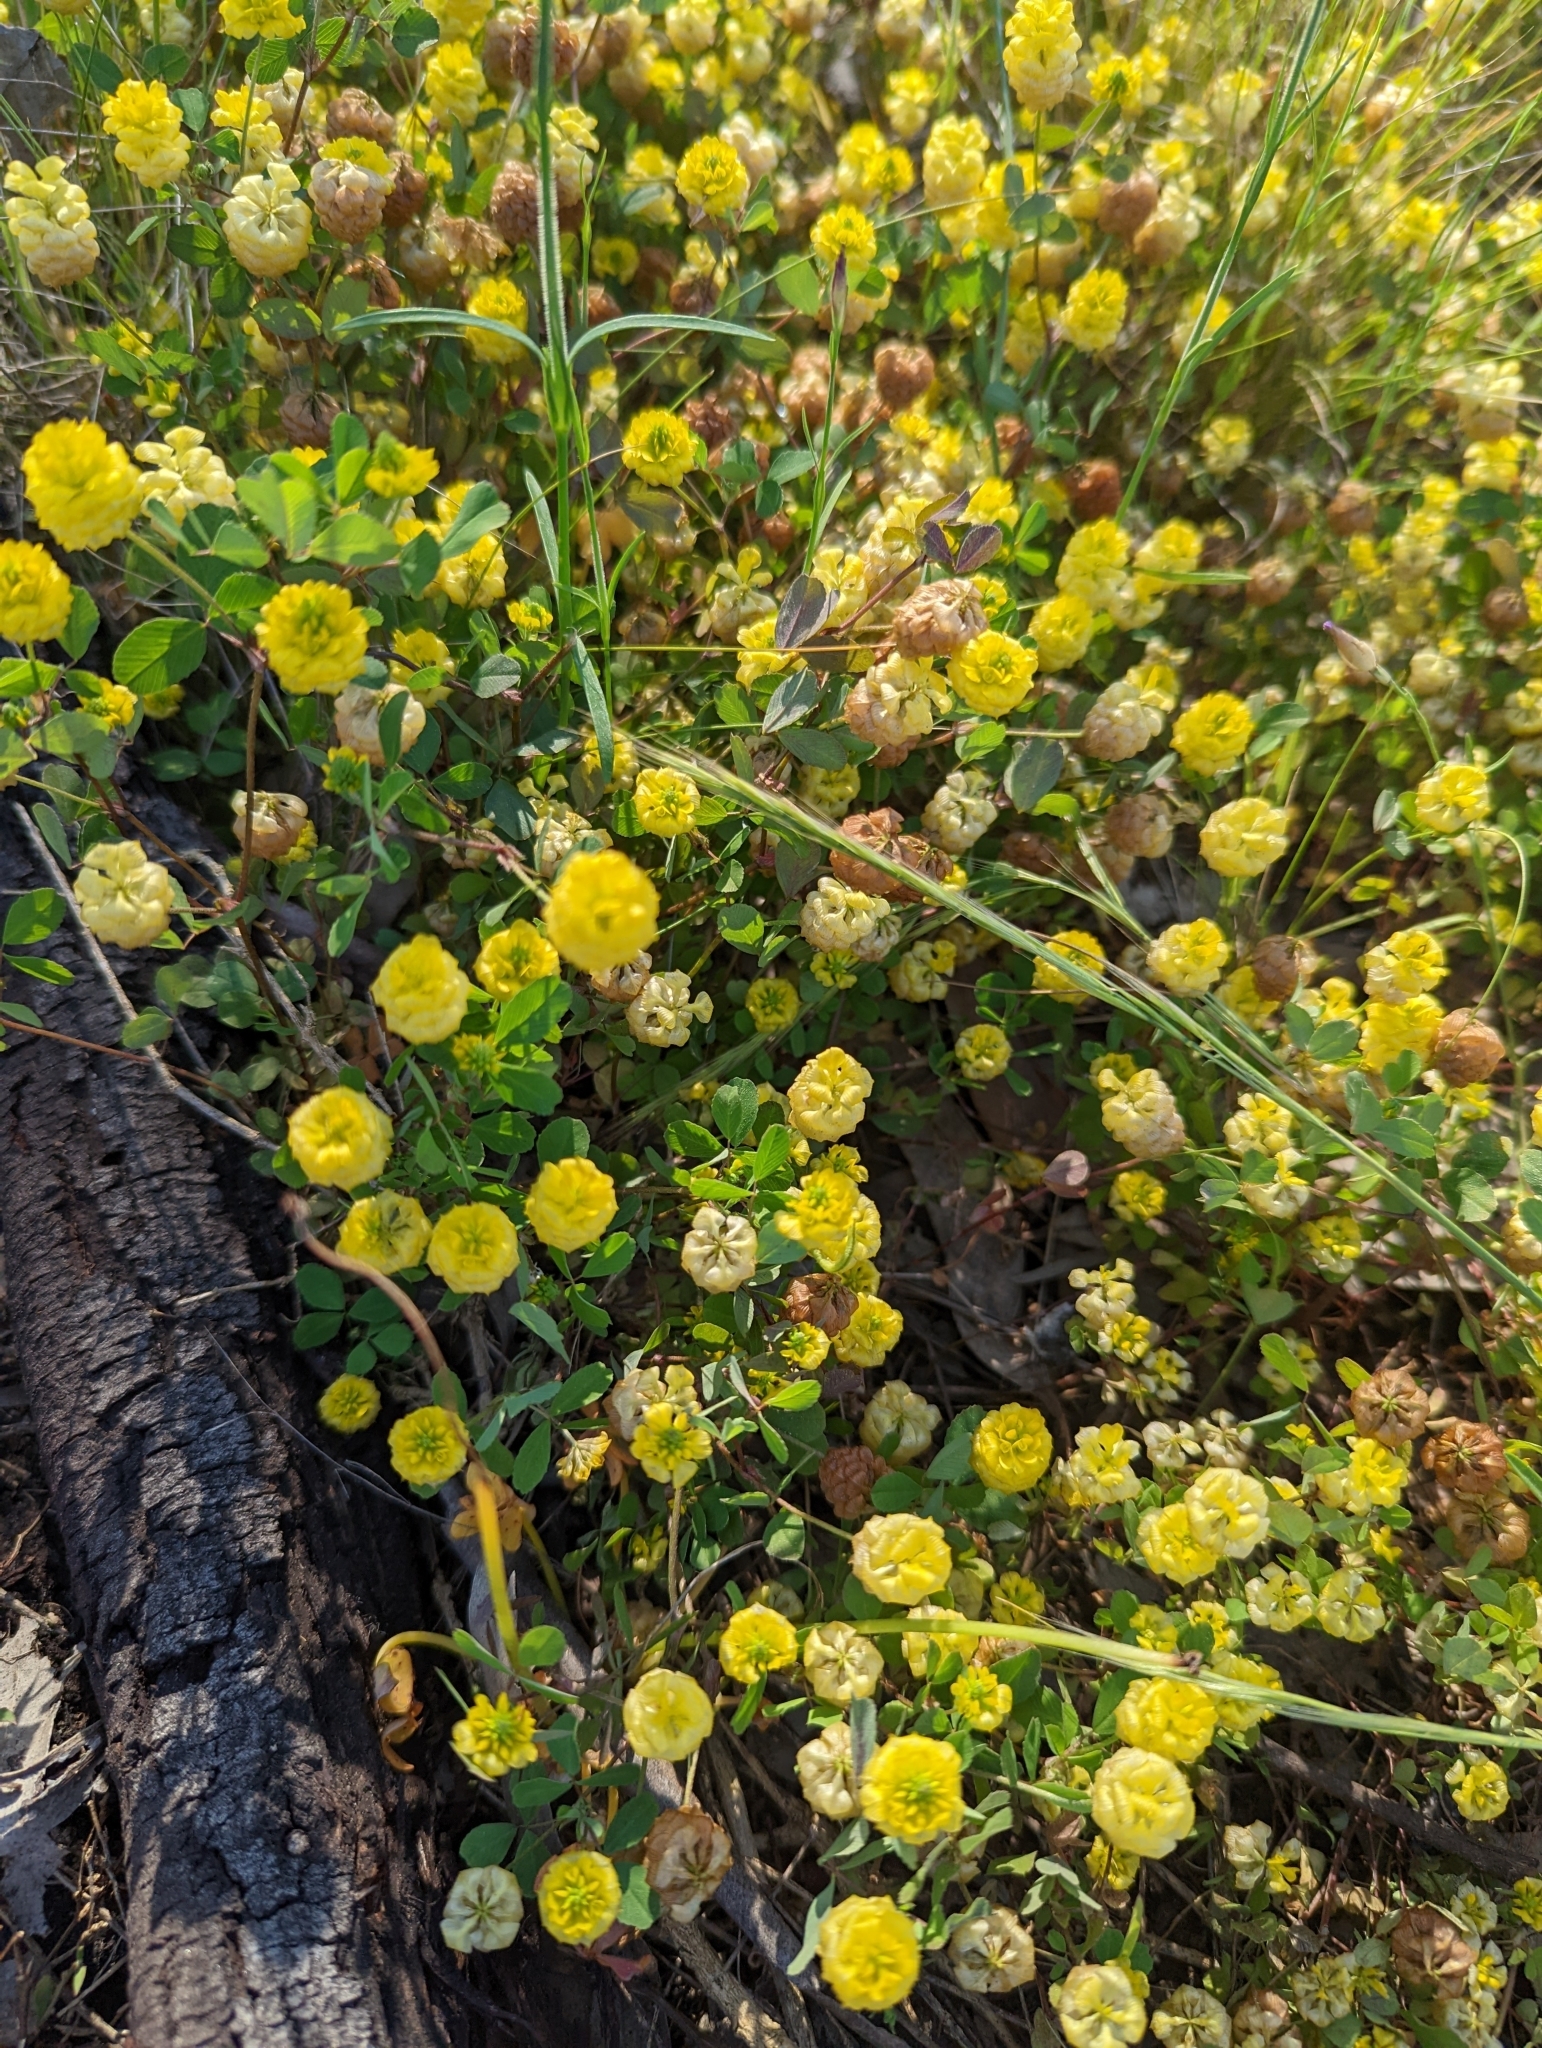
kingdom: Plantae
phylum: Tracheophyta
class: Magnoliopsida
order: Fabales
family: Fabaceae
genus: Trifolium
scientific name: Trifolium campestre
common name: Field clover
